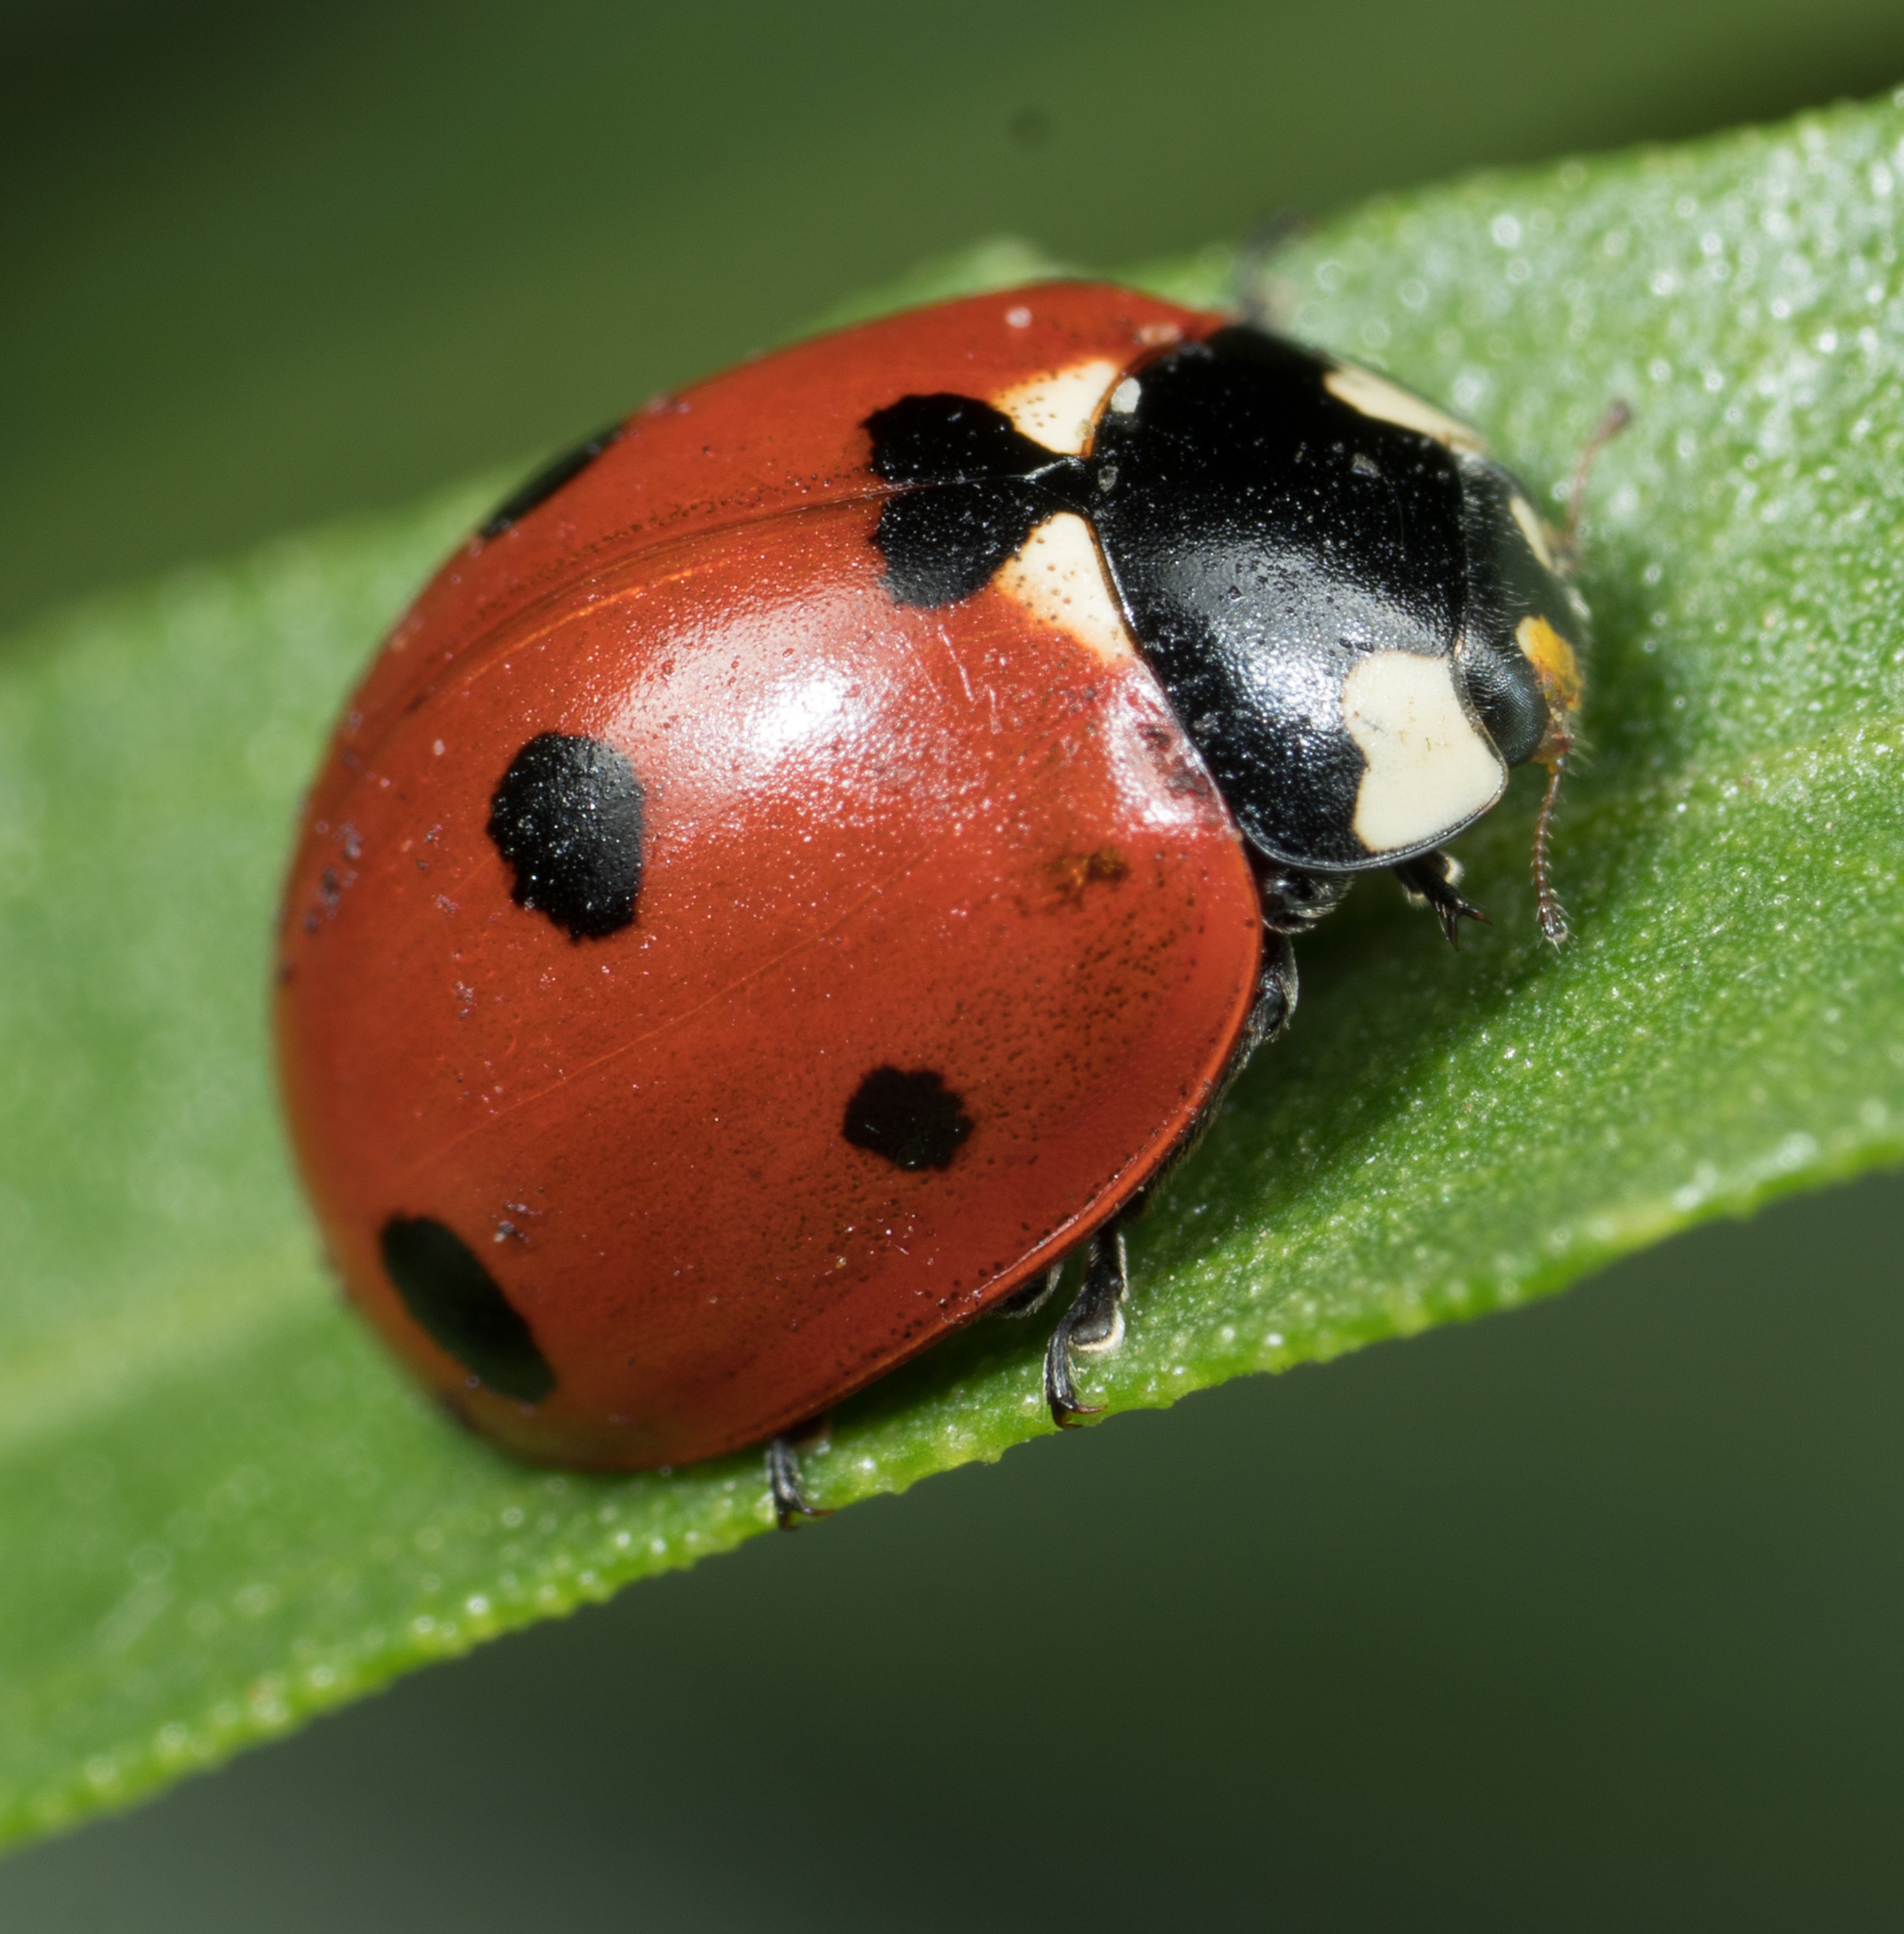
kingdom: Animalia
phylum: Arthropoda
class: Insecta
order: Coleoptera
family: Coccinellidae
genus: Coccinella
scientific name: Coccinella septempunctata
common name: Sevenspotted lady beetle
